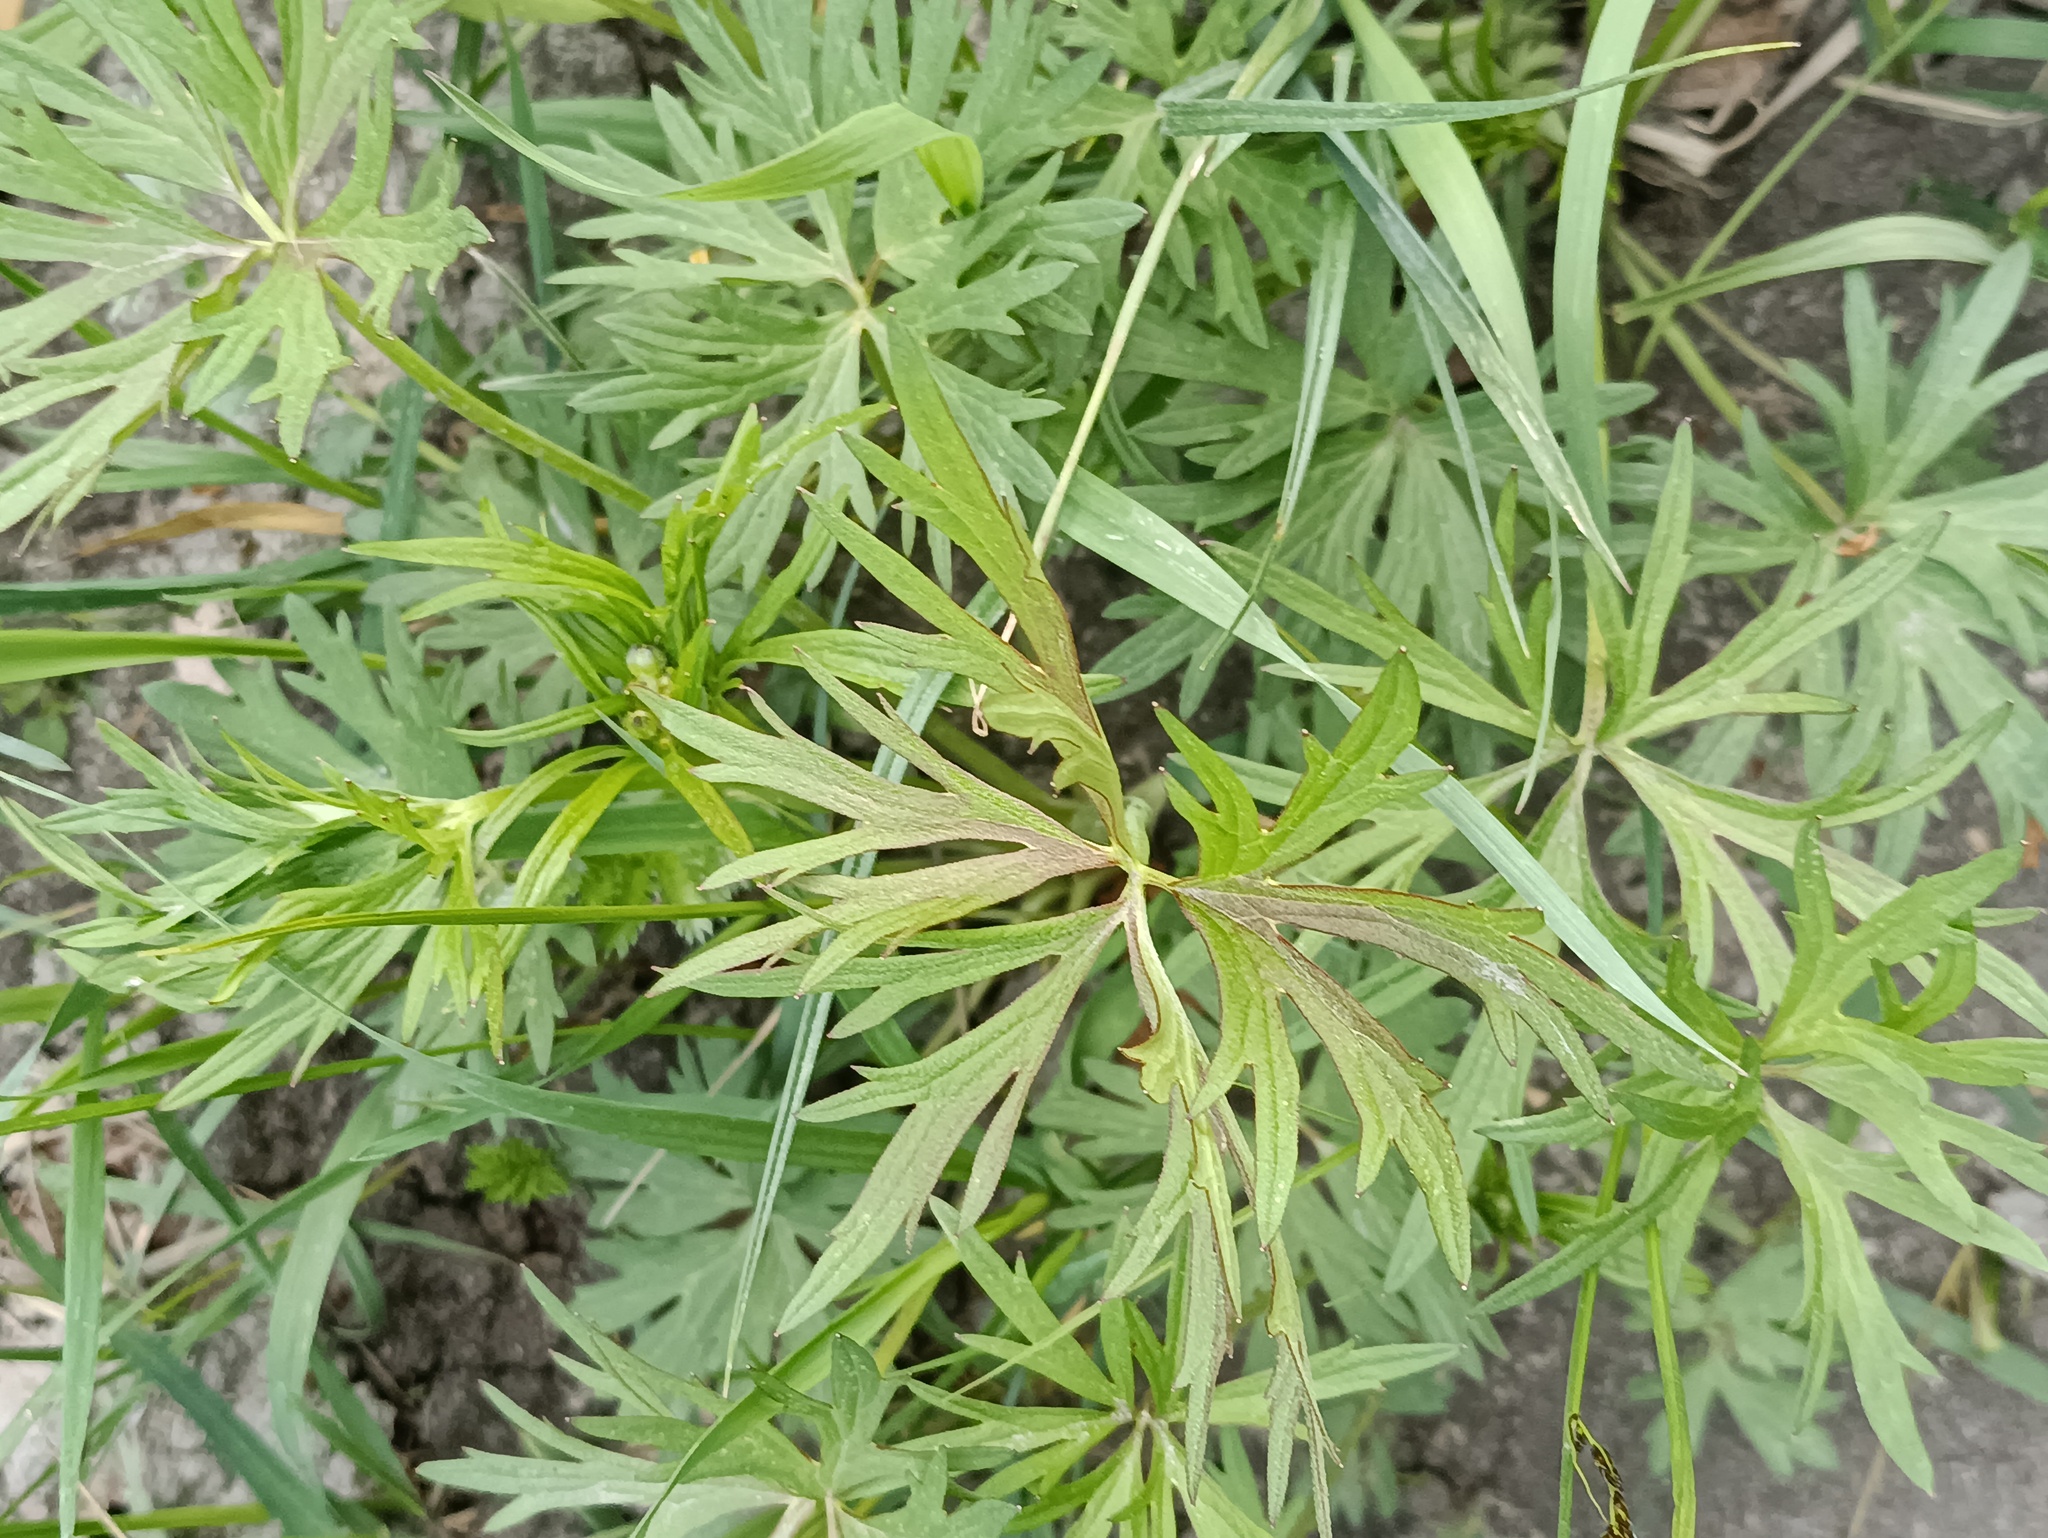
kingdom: Plantae
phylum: Tracheophyta
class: Magnoliopsida
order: Ranunculales
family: Ranunculaceae
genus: Ranunculus
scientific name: Ranunculus acris
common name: Meadow buttercup
